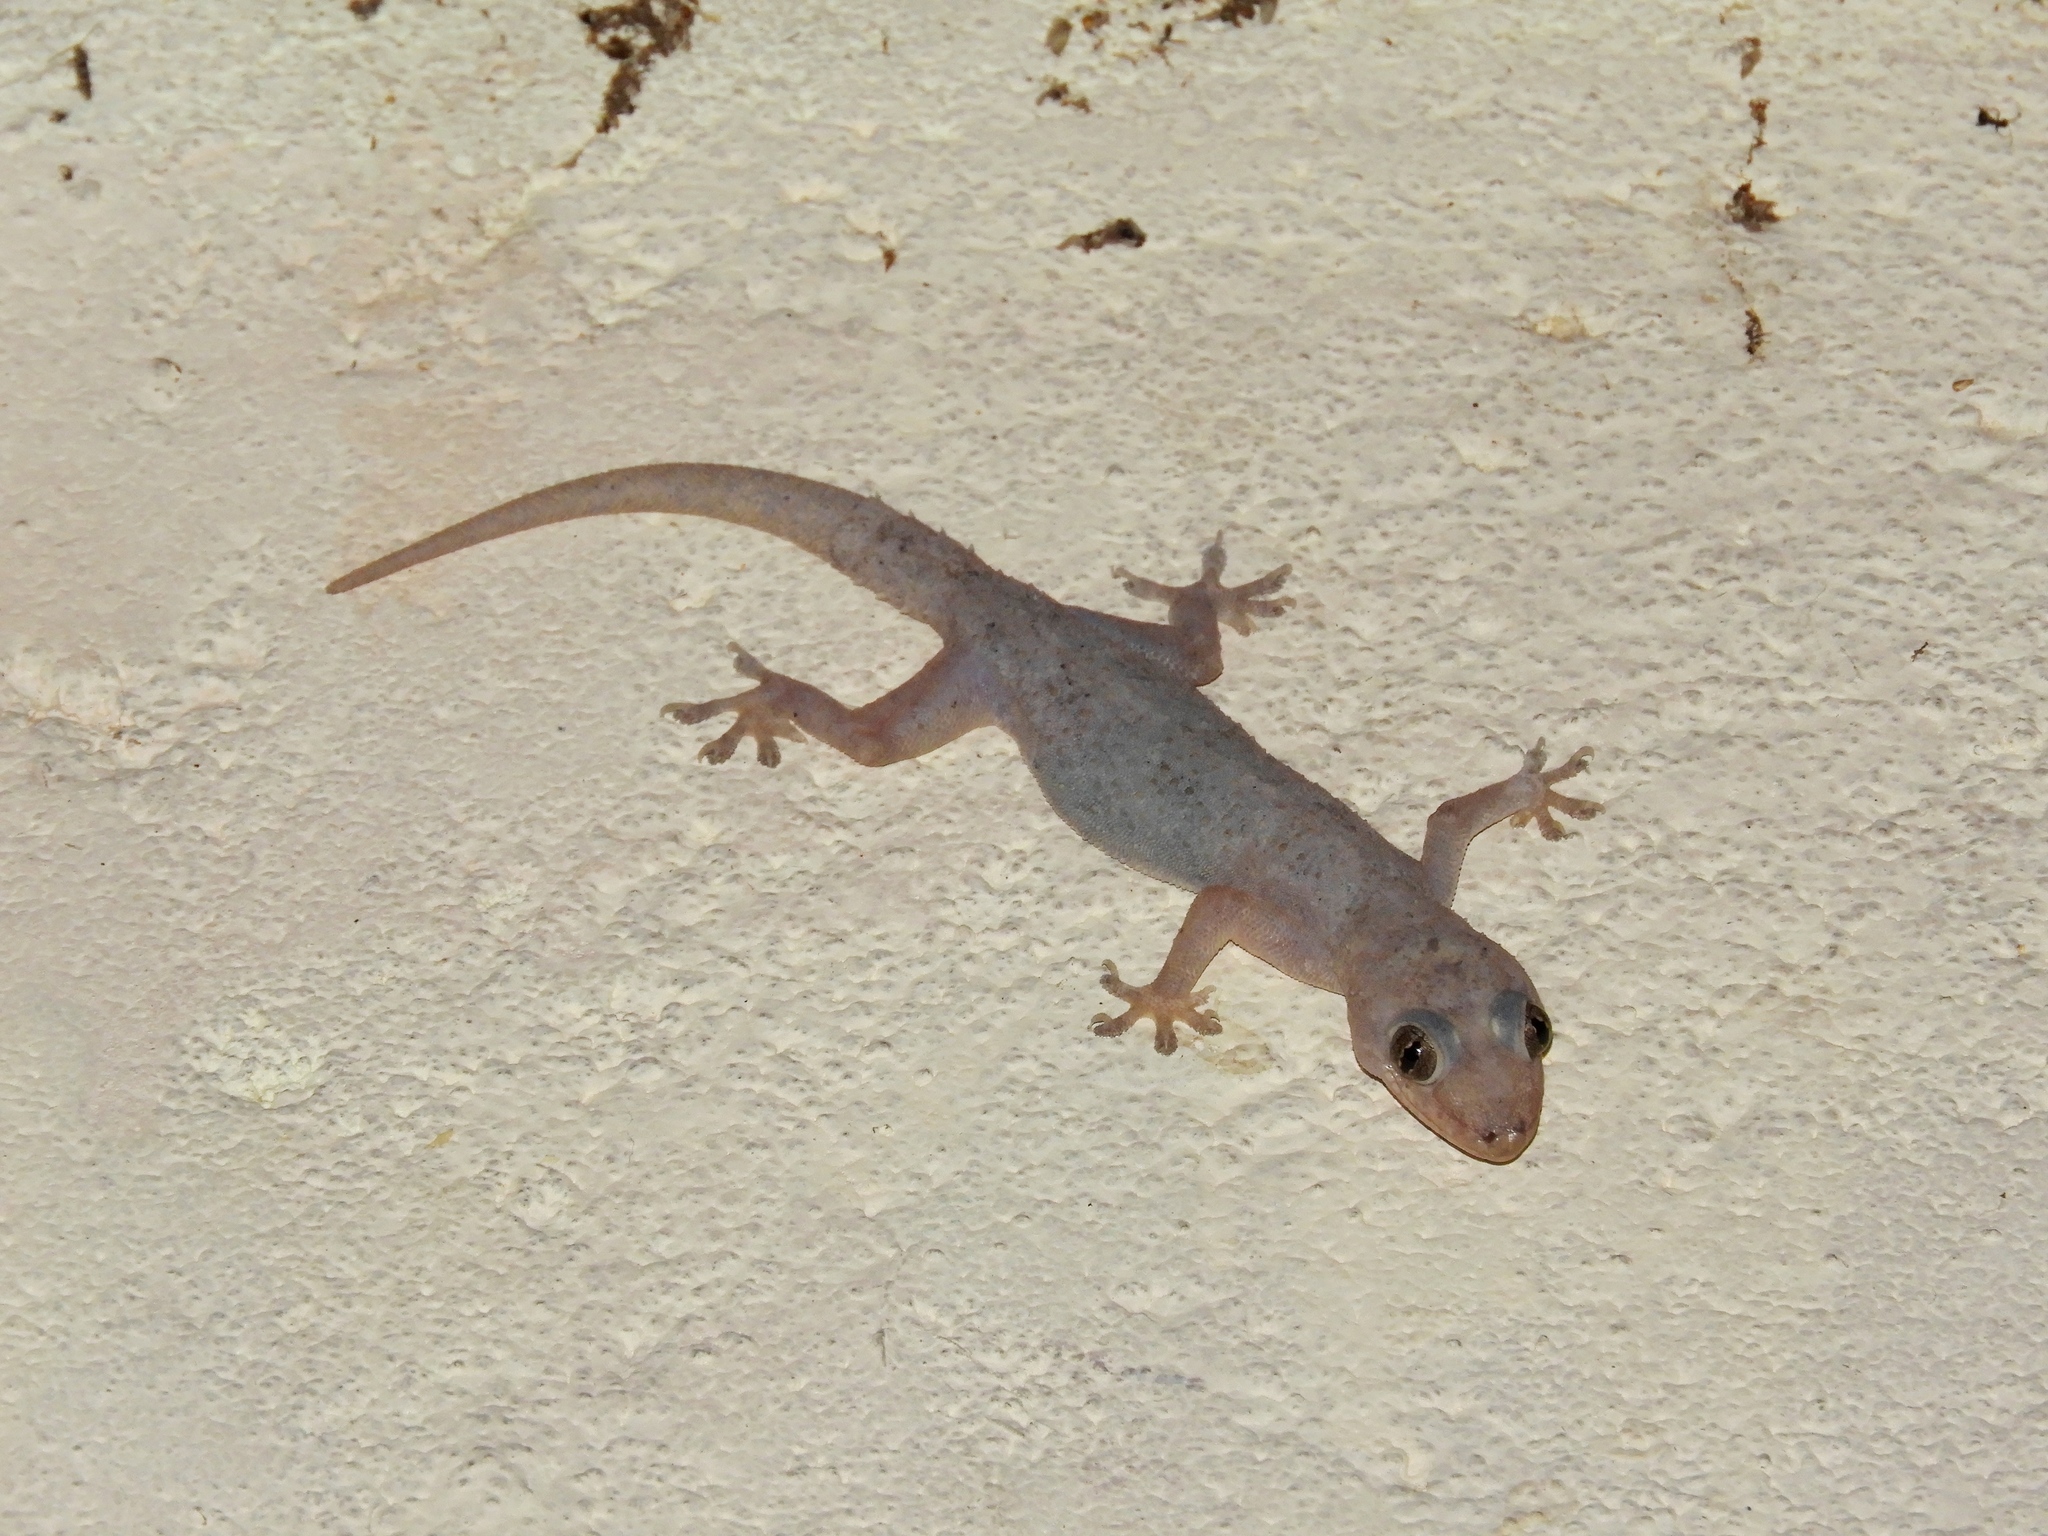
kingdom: Animalia
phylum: Chordata
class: Squamata
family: Gekkonidae
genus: Hemidactylus
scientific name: Hemidactylus mabouia
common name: House gecko
